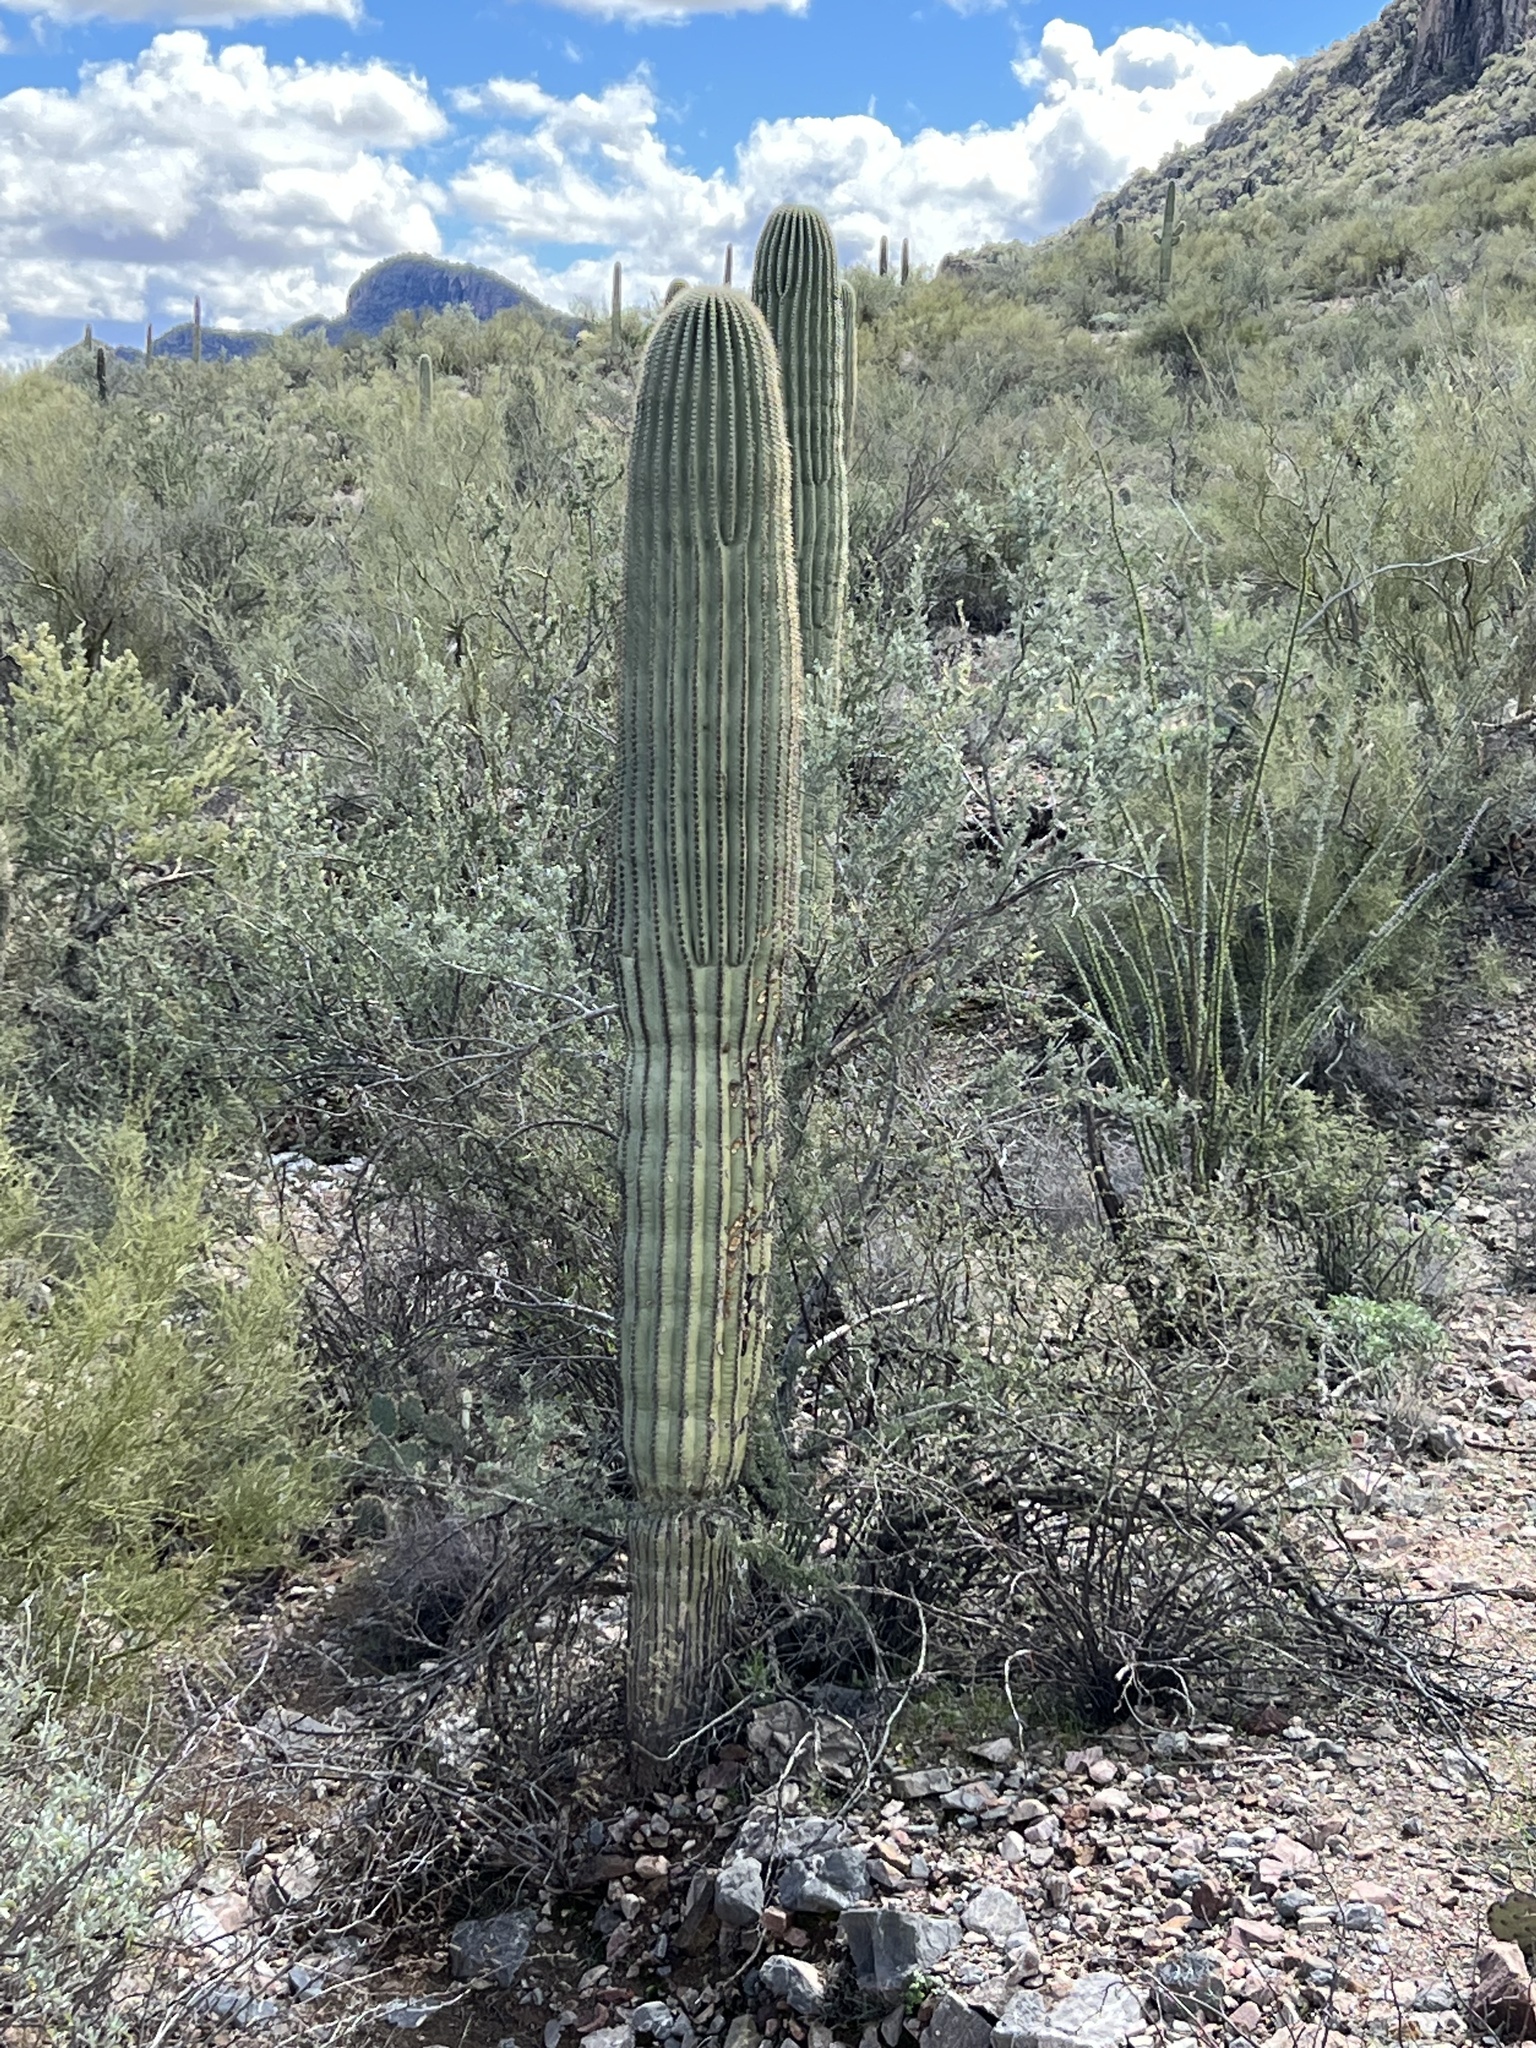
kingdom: Plantae
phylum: Tracheophyta
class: Magnoliopsida
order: Caryophyllales
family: Cactaceae
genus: Carnegiea
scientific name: Carnegiea gigantea
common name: Saguaro
